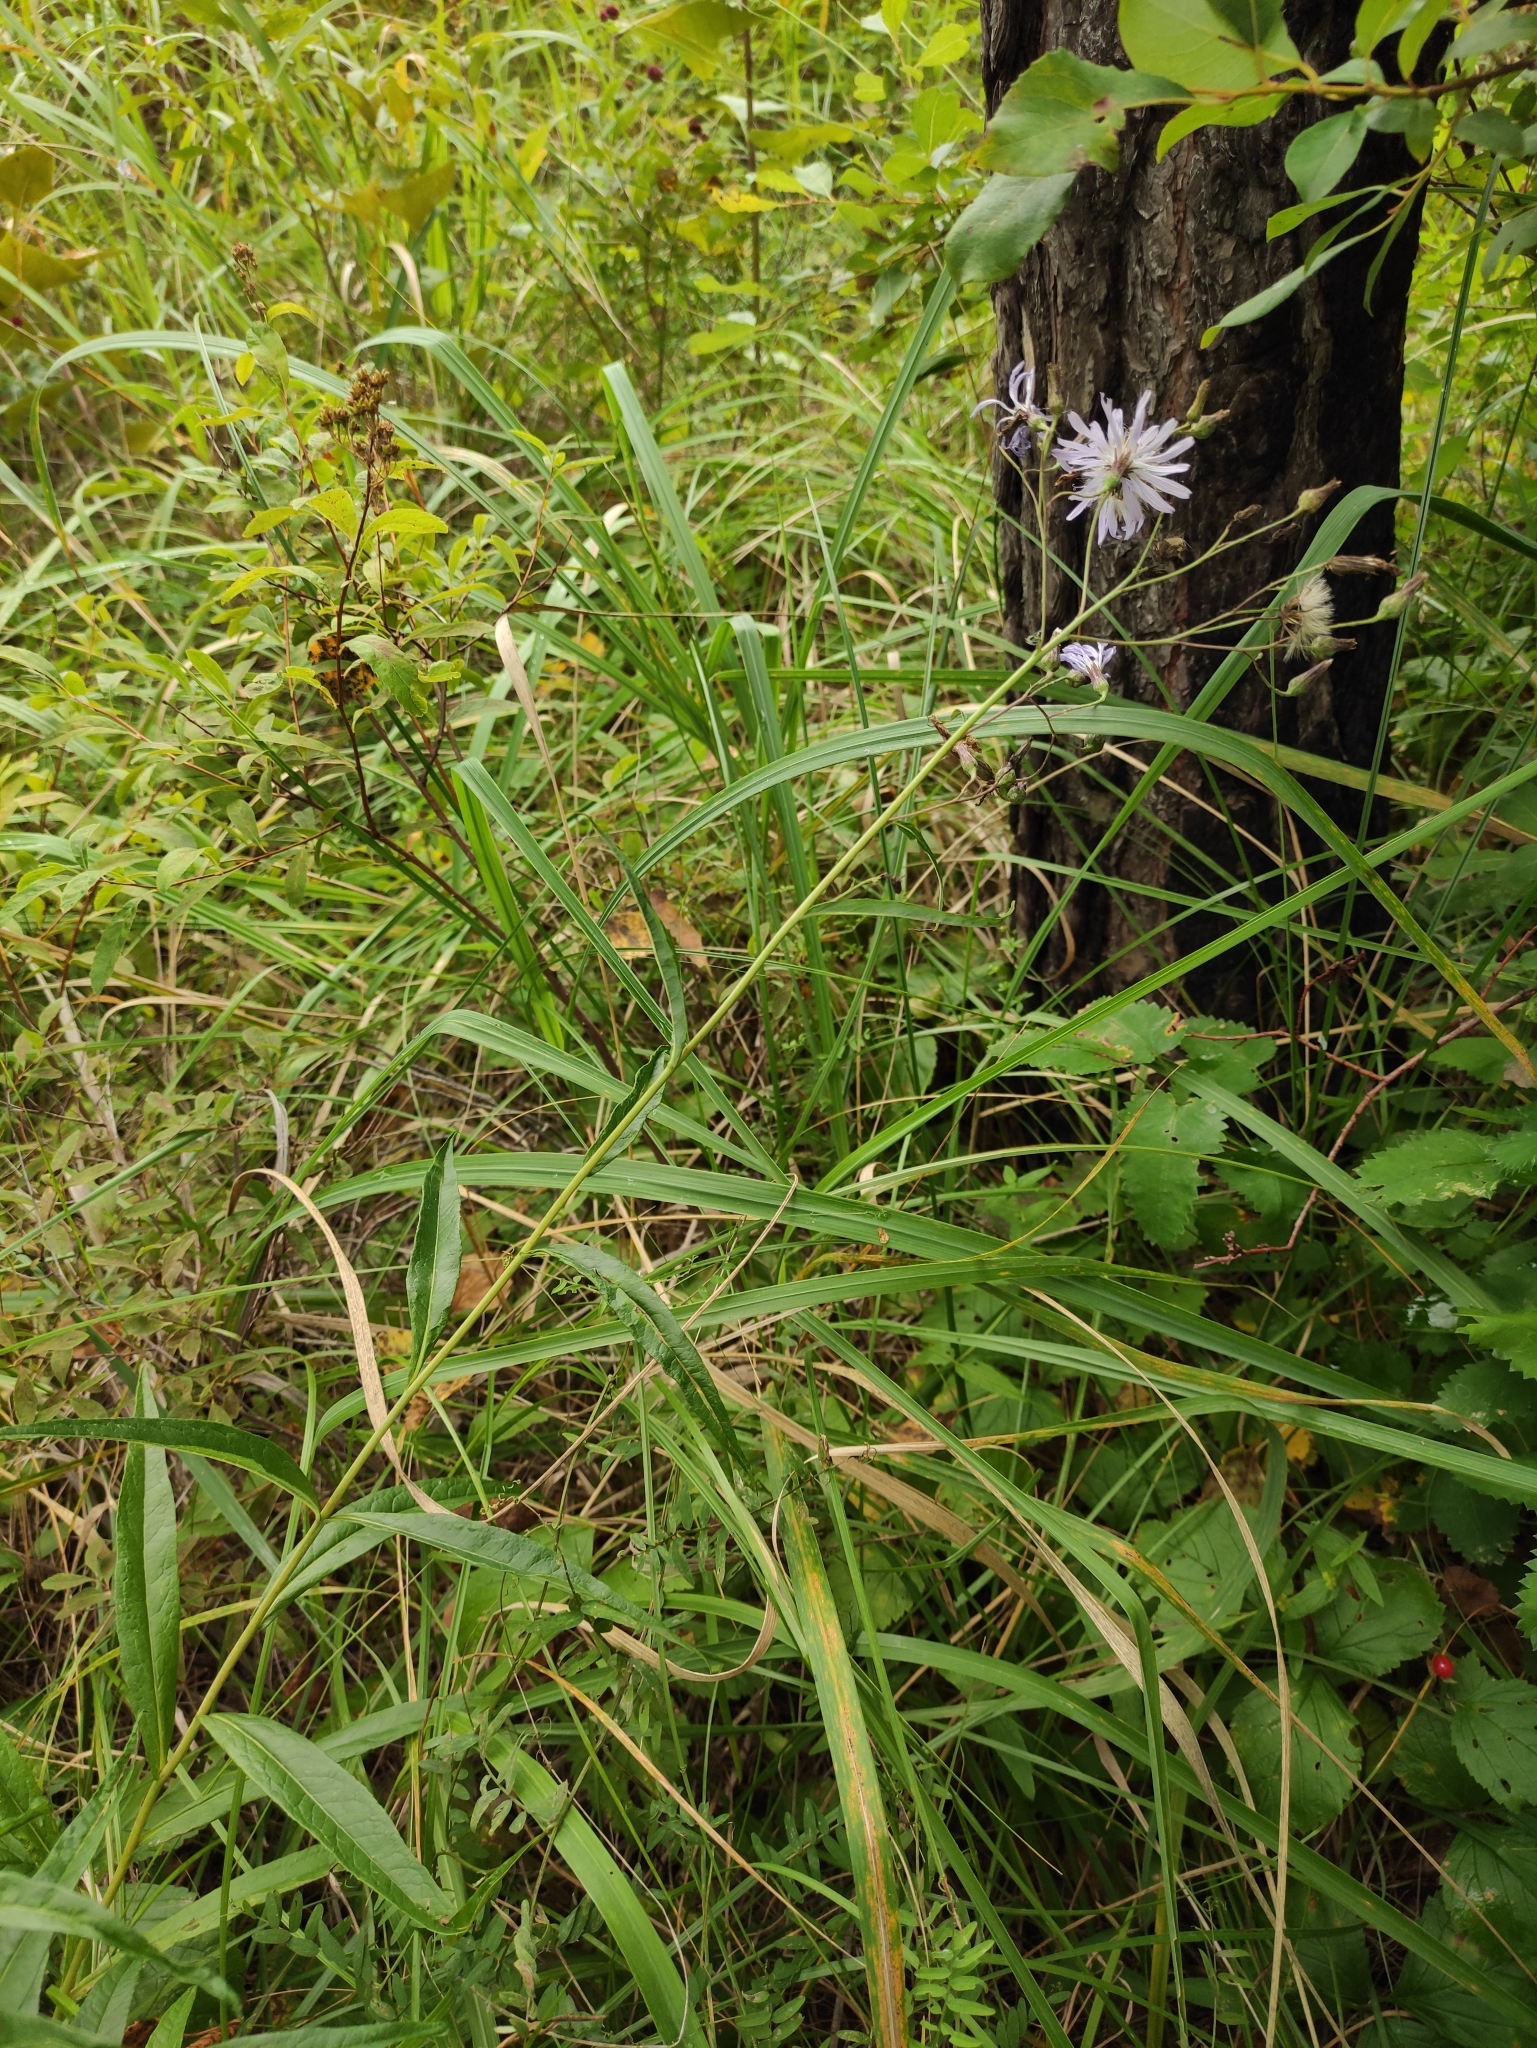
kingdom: Plantae
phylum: Tracheophyta
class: Magnoliopsida
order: Asterales
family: Asteraceae
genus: Lactuca
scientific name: Lactuca sibirica
